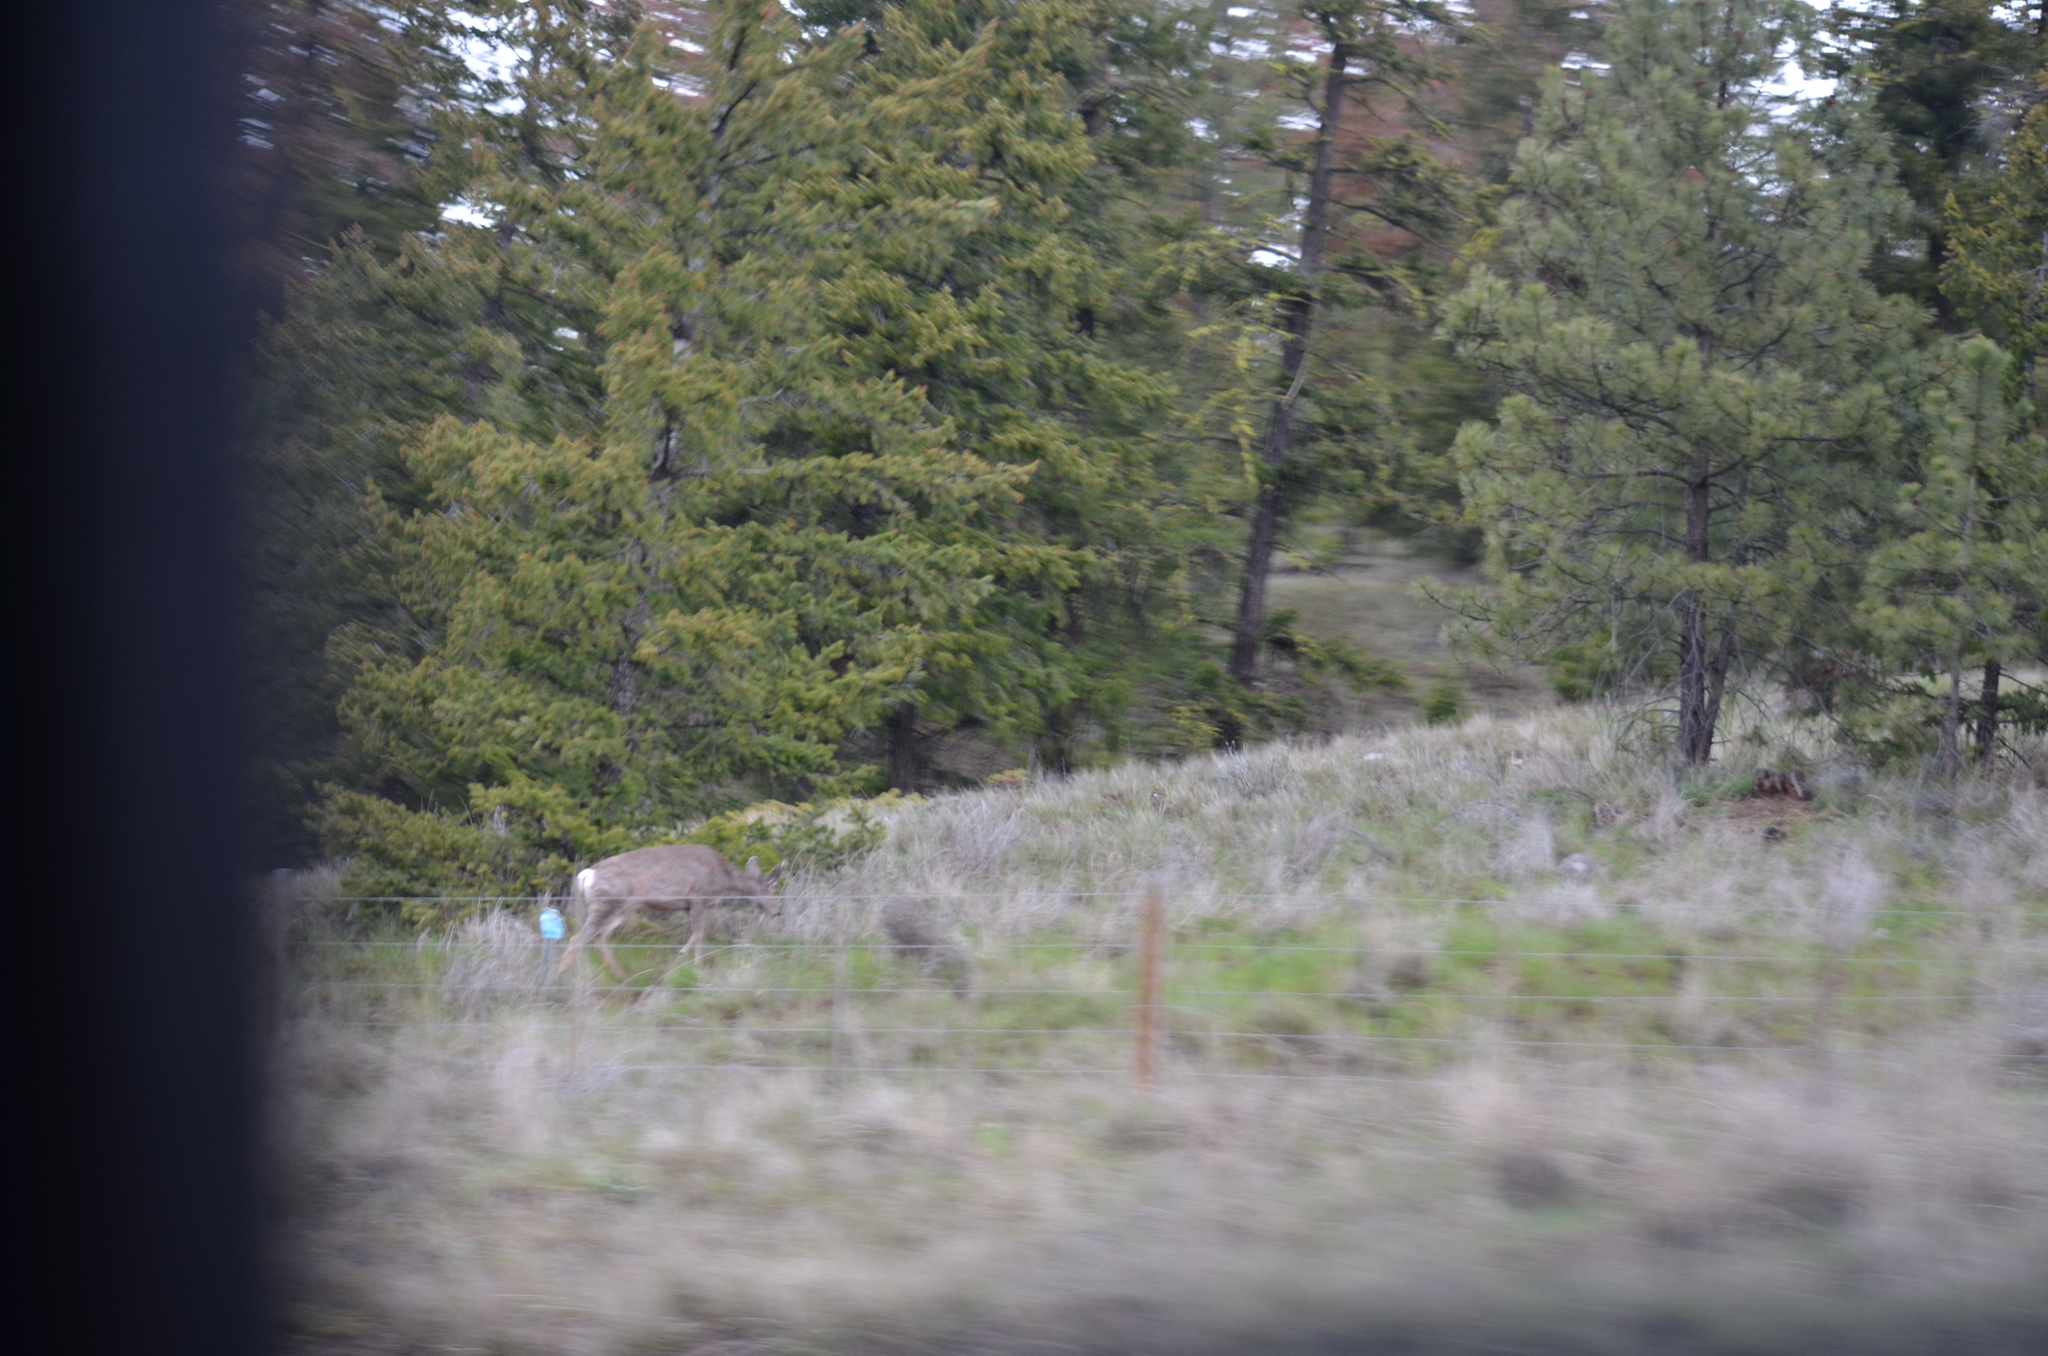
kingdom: Animalia
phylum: Chordata
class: Mammalia
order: Artiodactyla
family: Cervidae
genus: Odocoileus
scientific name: Odocoileus hemionus
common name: Mule deer
